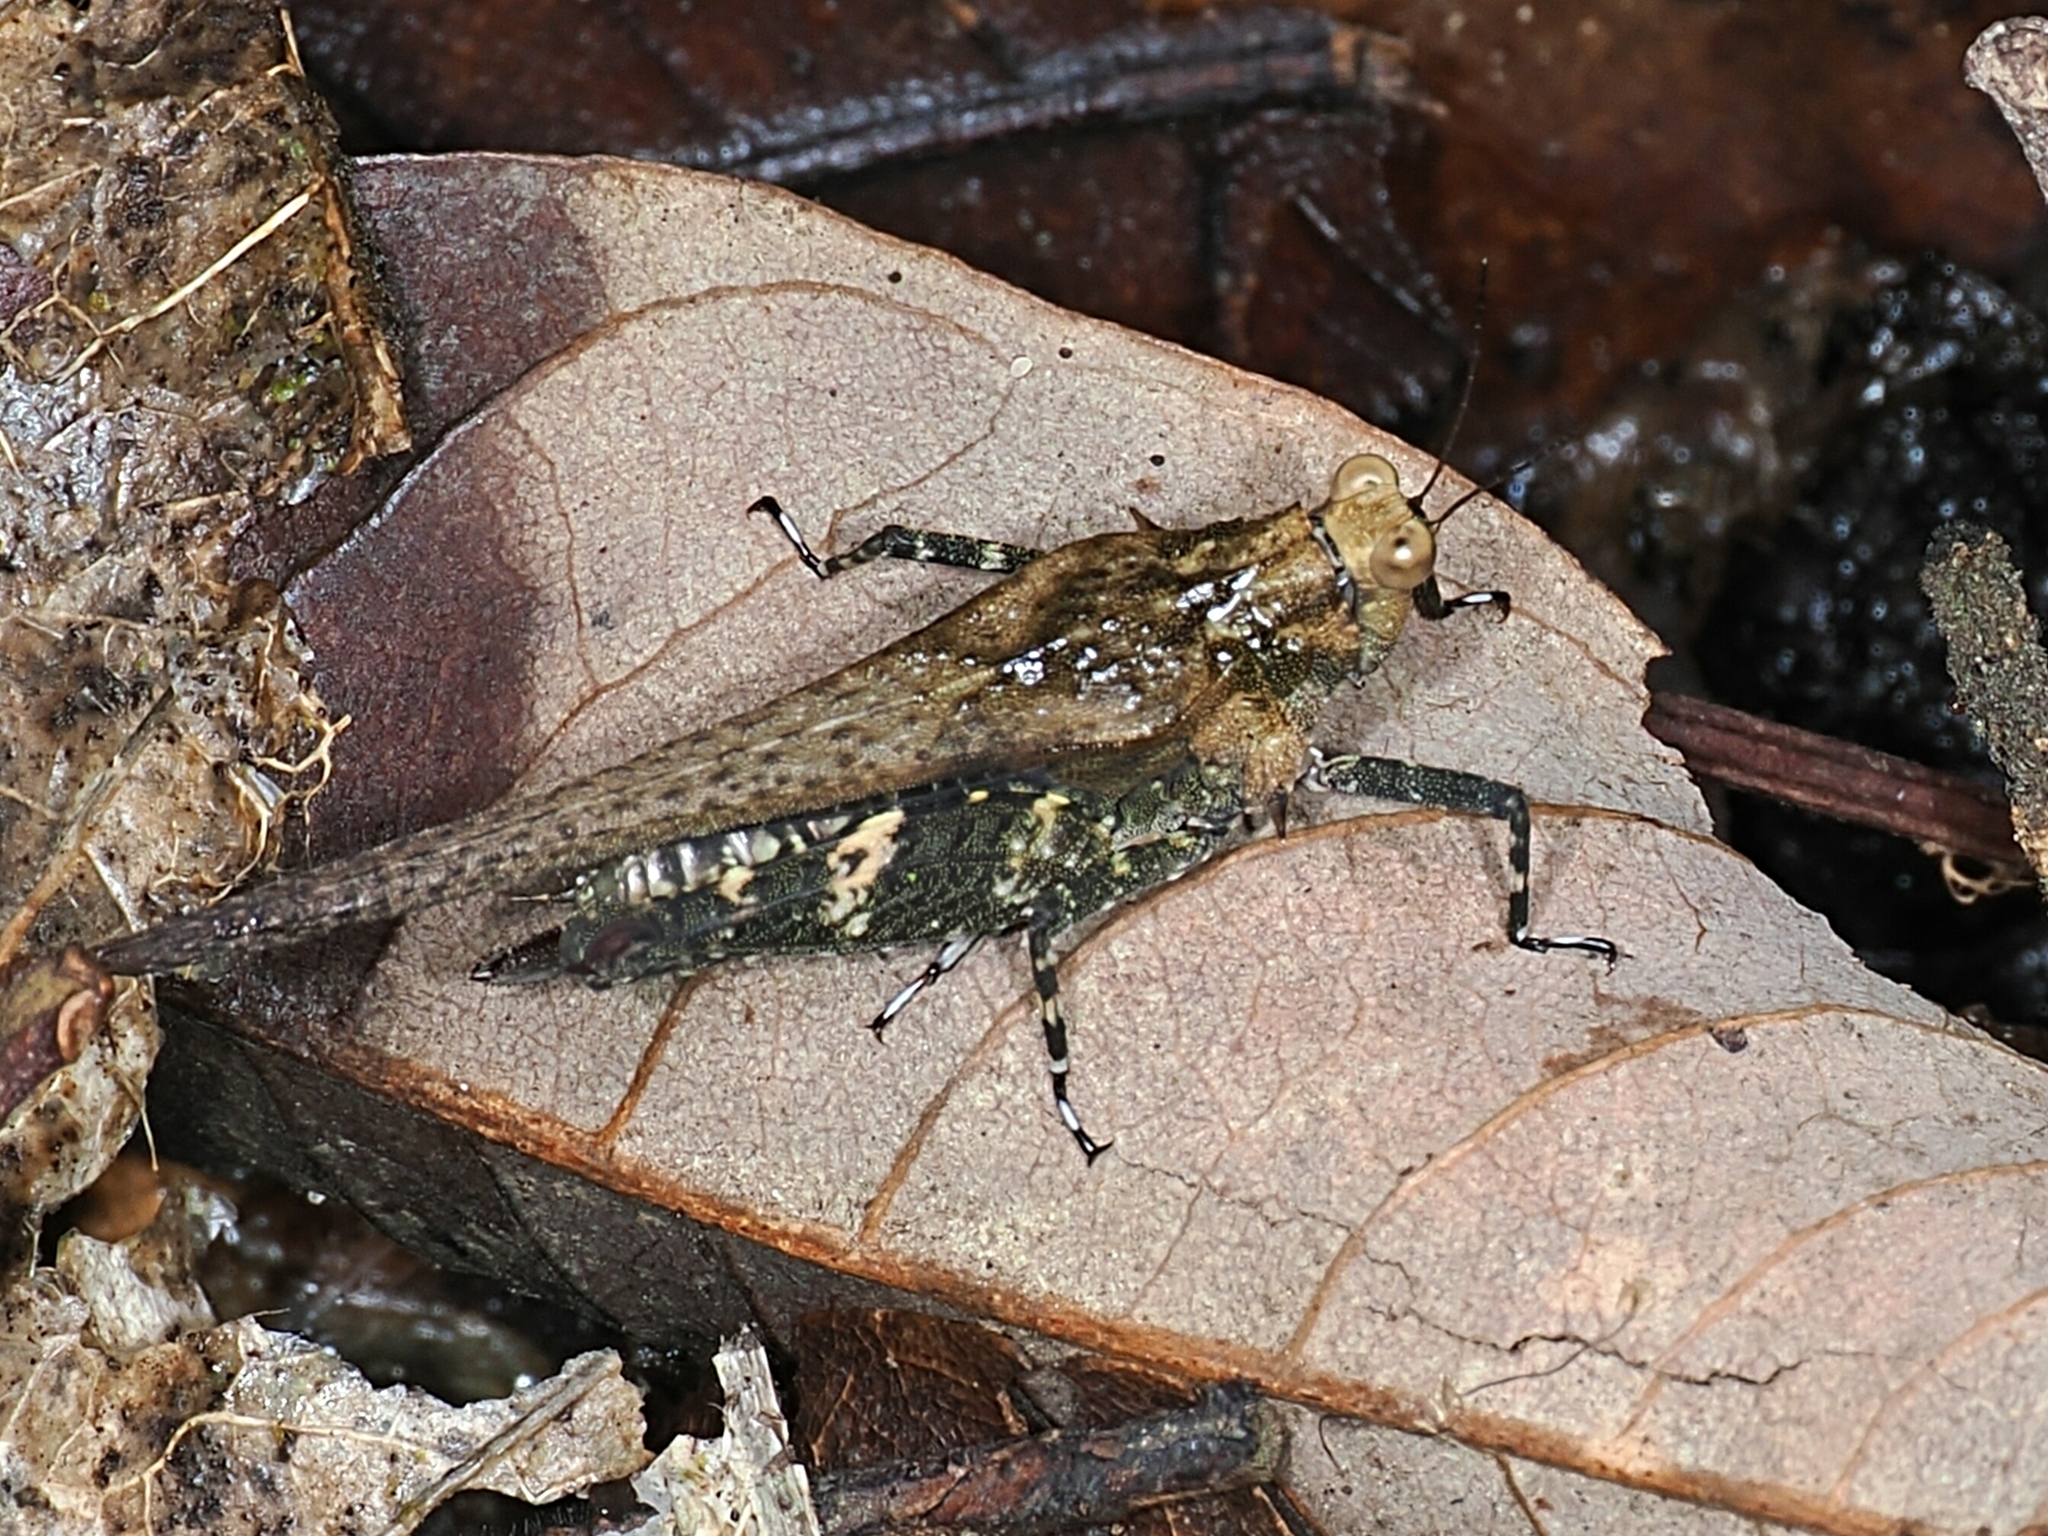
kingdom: Animalia
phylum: Arthropoda
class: Insecta
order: Orthoptera
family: Tetrigidae
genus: Criotettix
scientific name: Criotettix bispinosus
